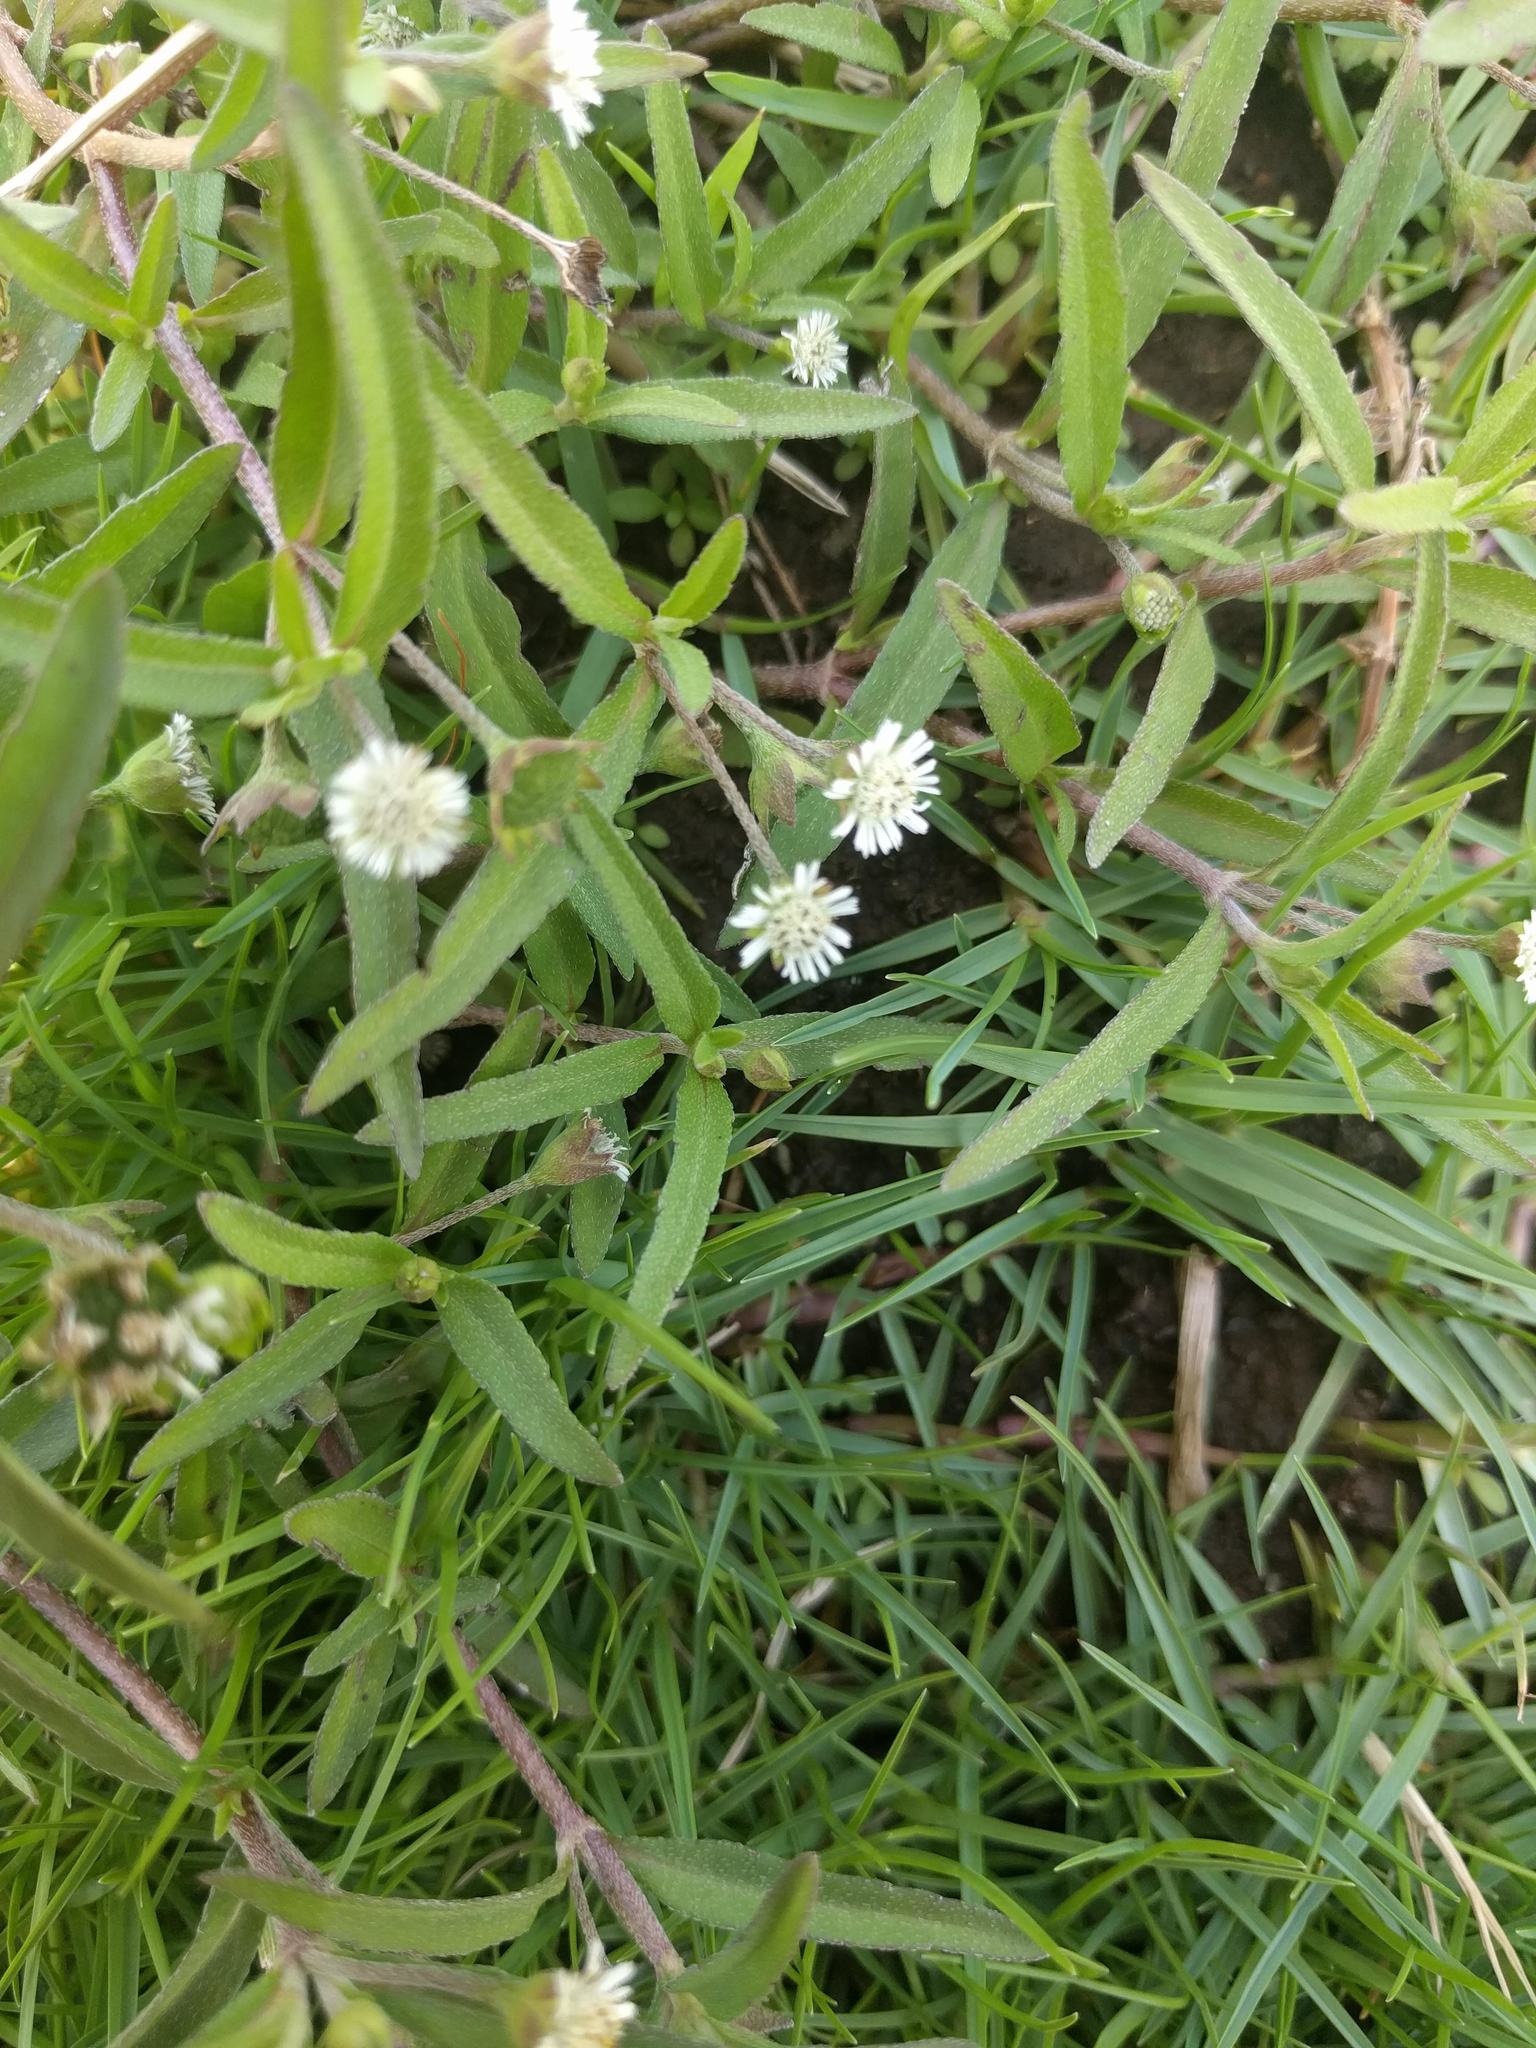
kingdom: Plantae
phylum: Tracheophyta
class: Magnoliopsida
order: Asterales
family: Asteraceae
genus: Eclipta
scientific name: Eclipta prostrata
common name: False daisy
